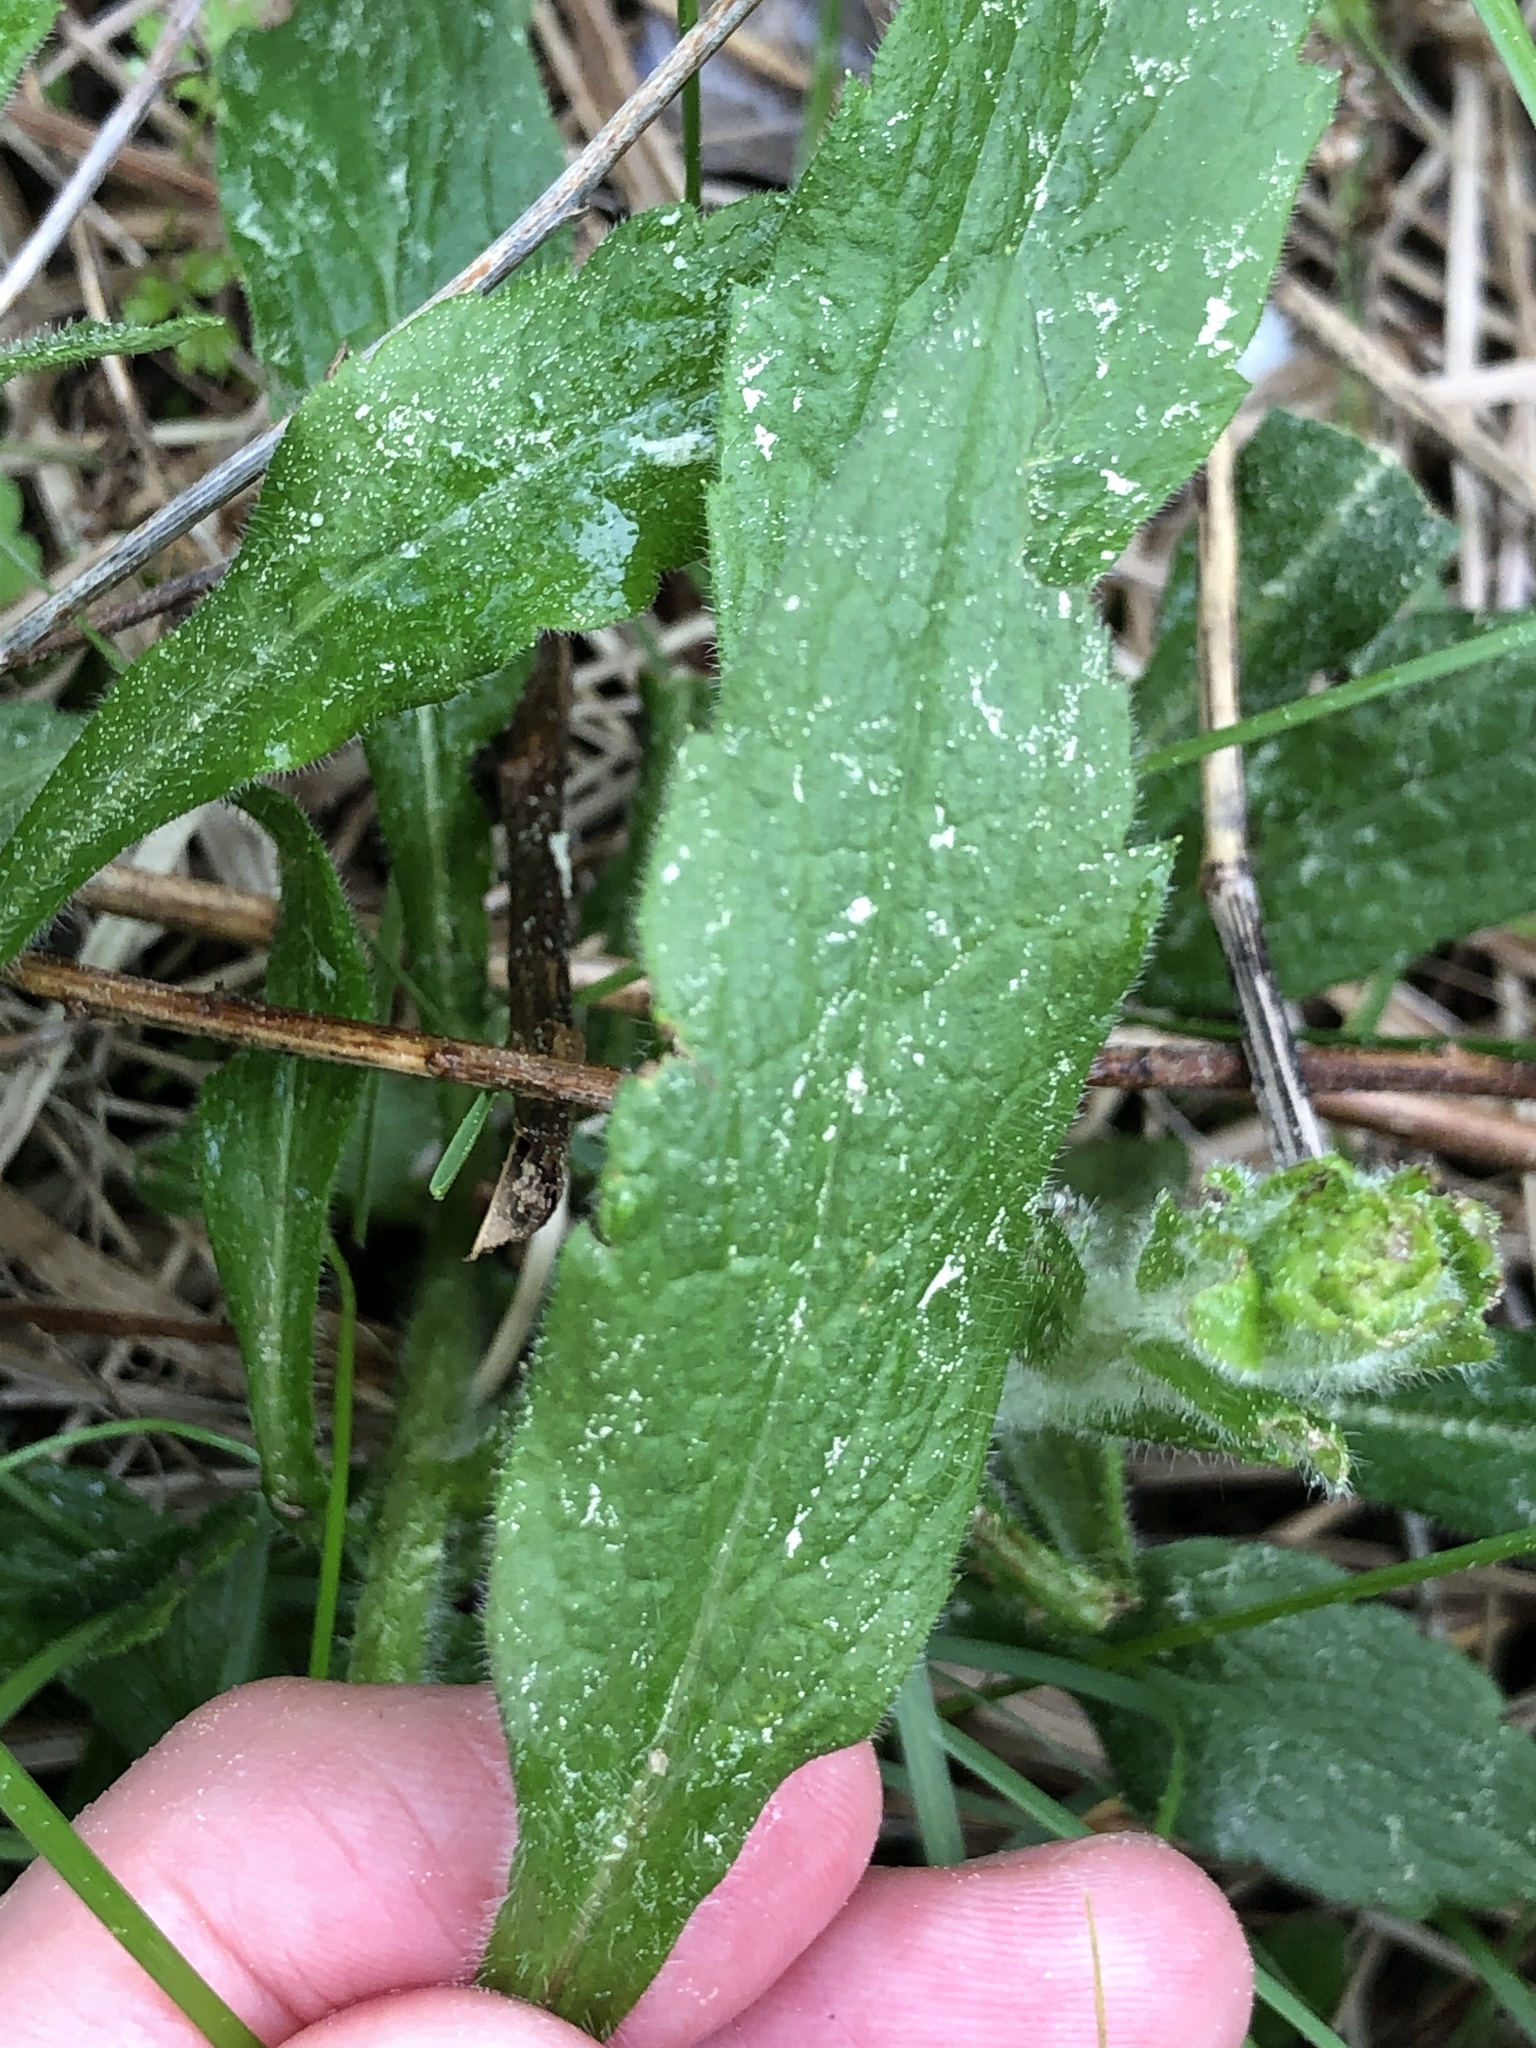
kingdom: Plantae
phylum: Tracheophyta
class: Magnoliopsida
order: Asterales
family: Asteraceae
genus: Solidago
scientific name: Solidago rugosa
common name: Rough-stemmed goldenrod
